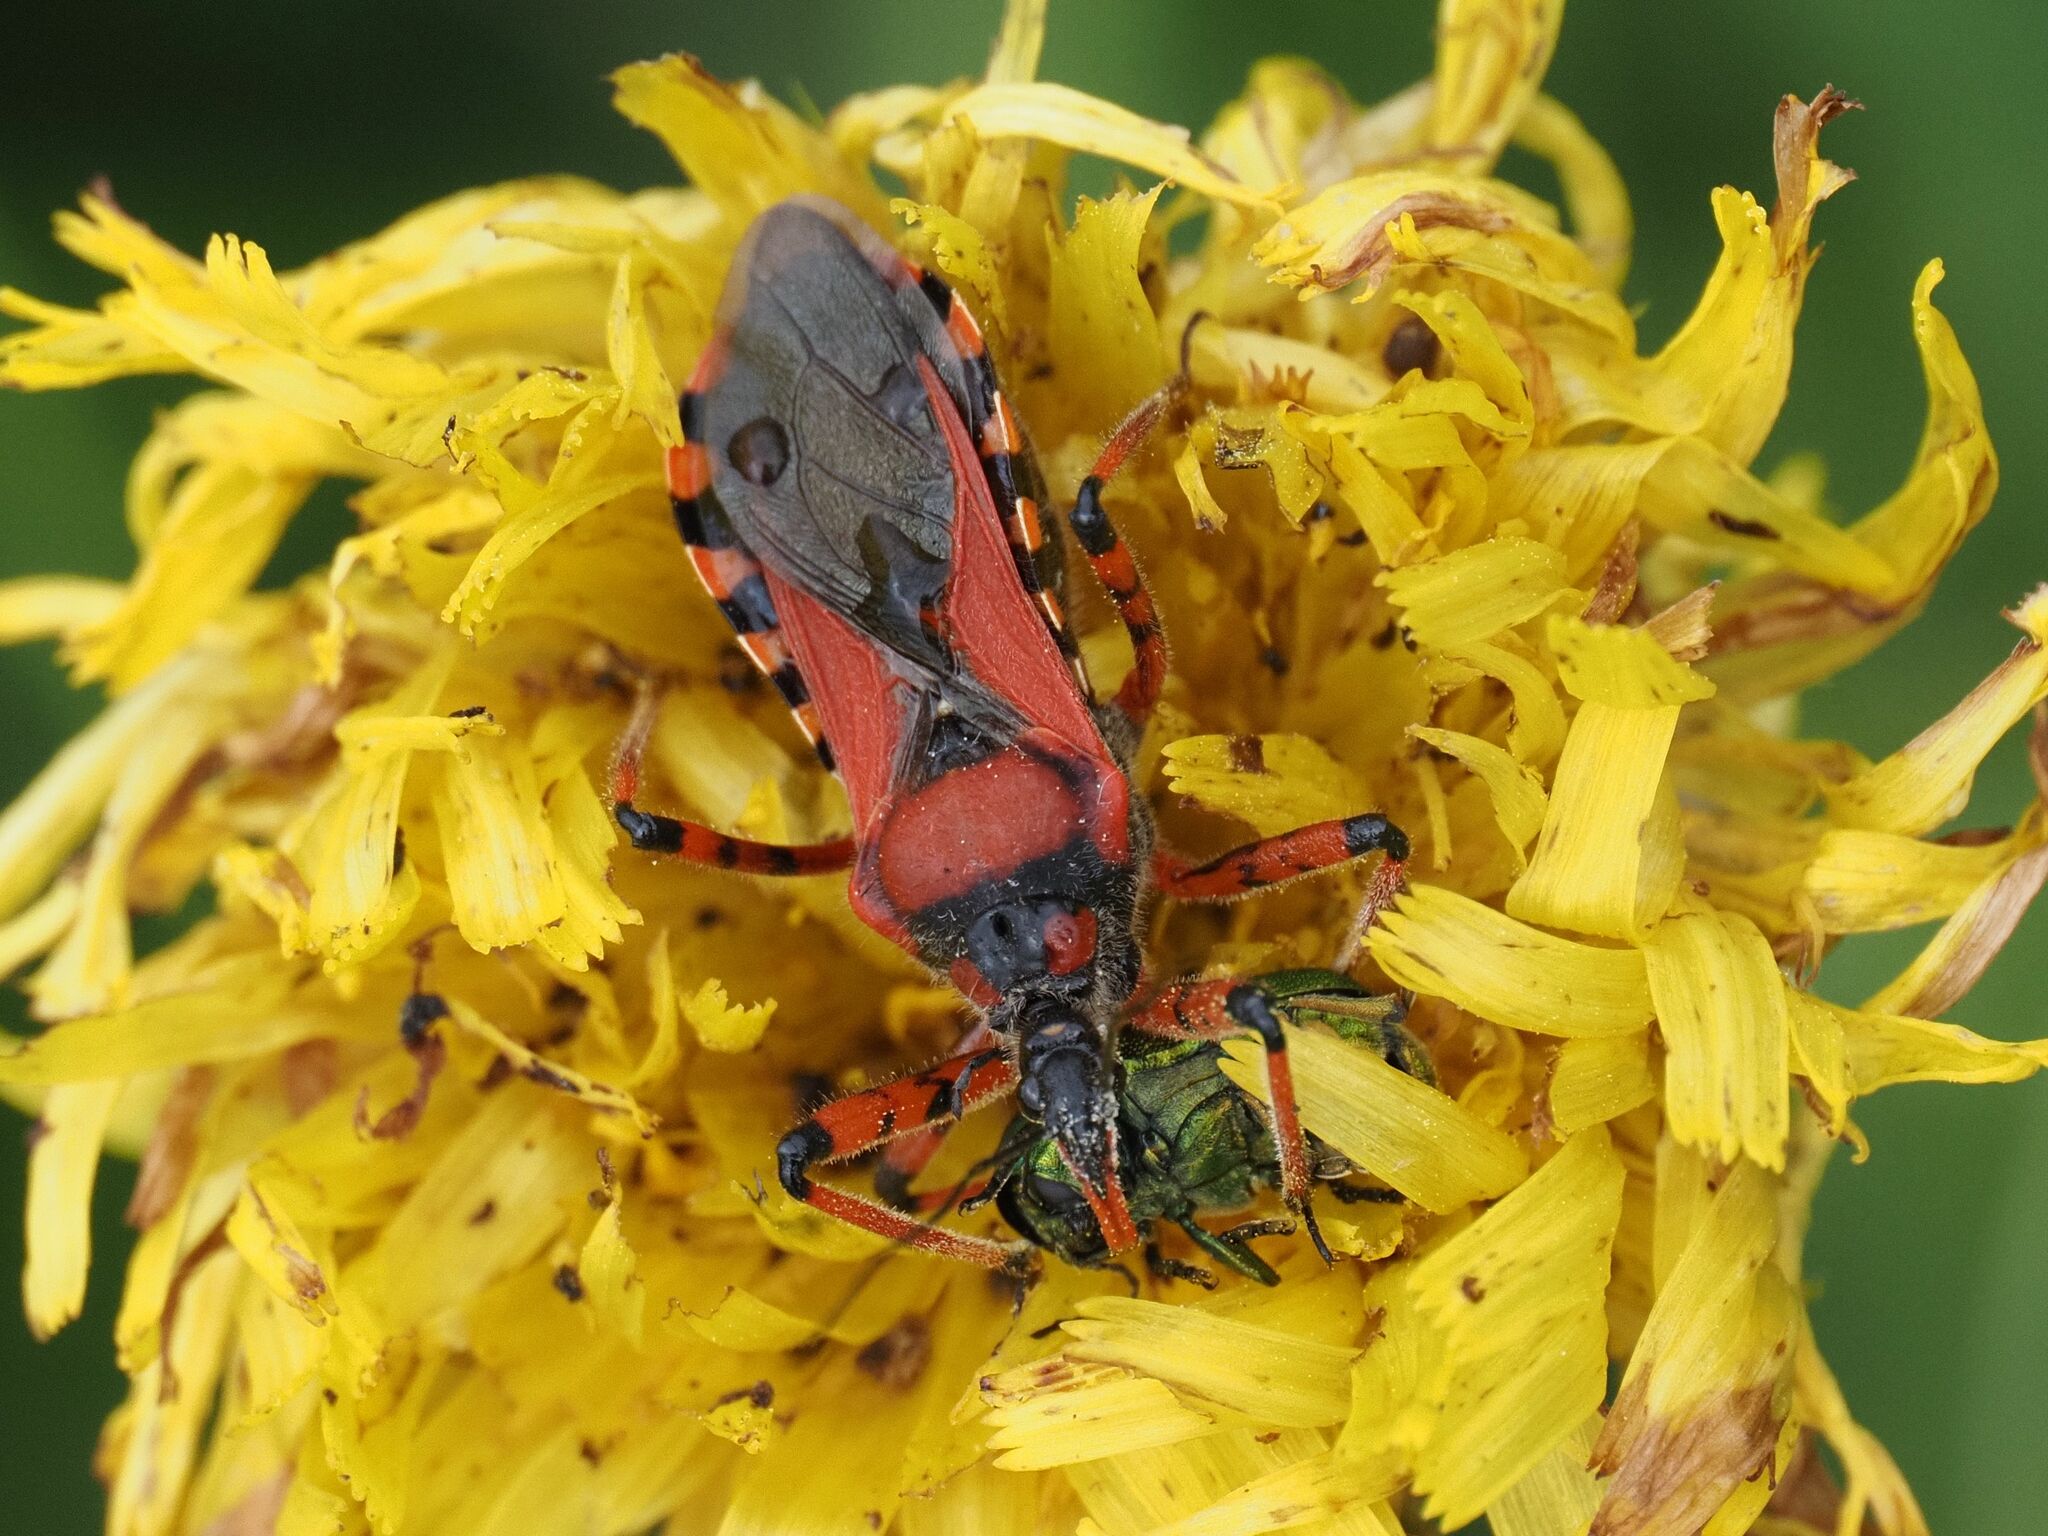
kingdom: Animalia
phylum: Arthropoda
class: Insecta
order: Hemiptera
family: Reduviidae
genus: Rhynocoris
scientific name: Rhynocoris iracundus
